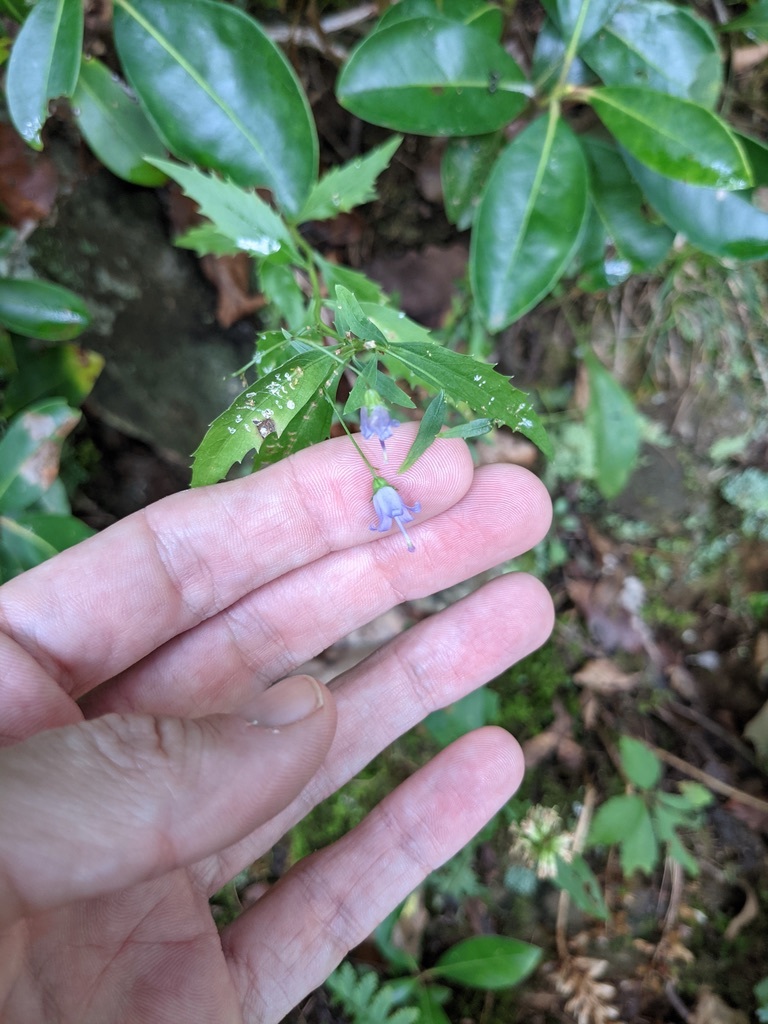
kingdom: Plantae
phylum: Tracheophyta
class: Magnoliopsida
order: Asterales
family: Campanulaceae
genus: Campanula
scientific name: Campanula divaricata
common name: Appalachian bellflower
